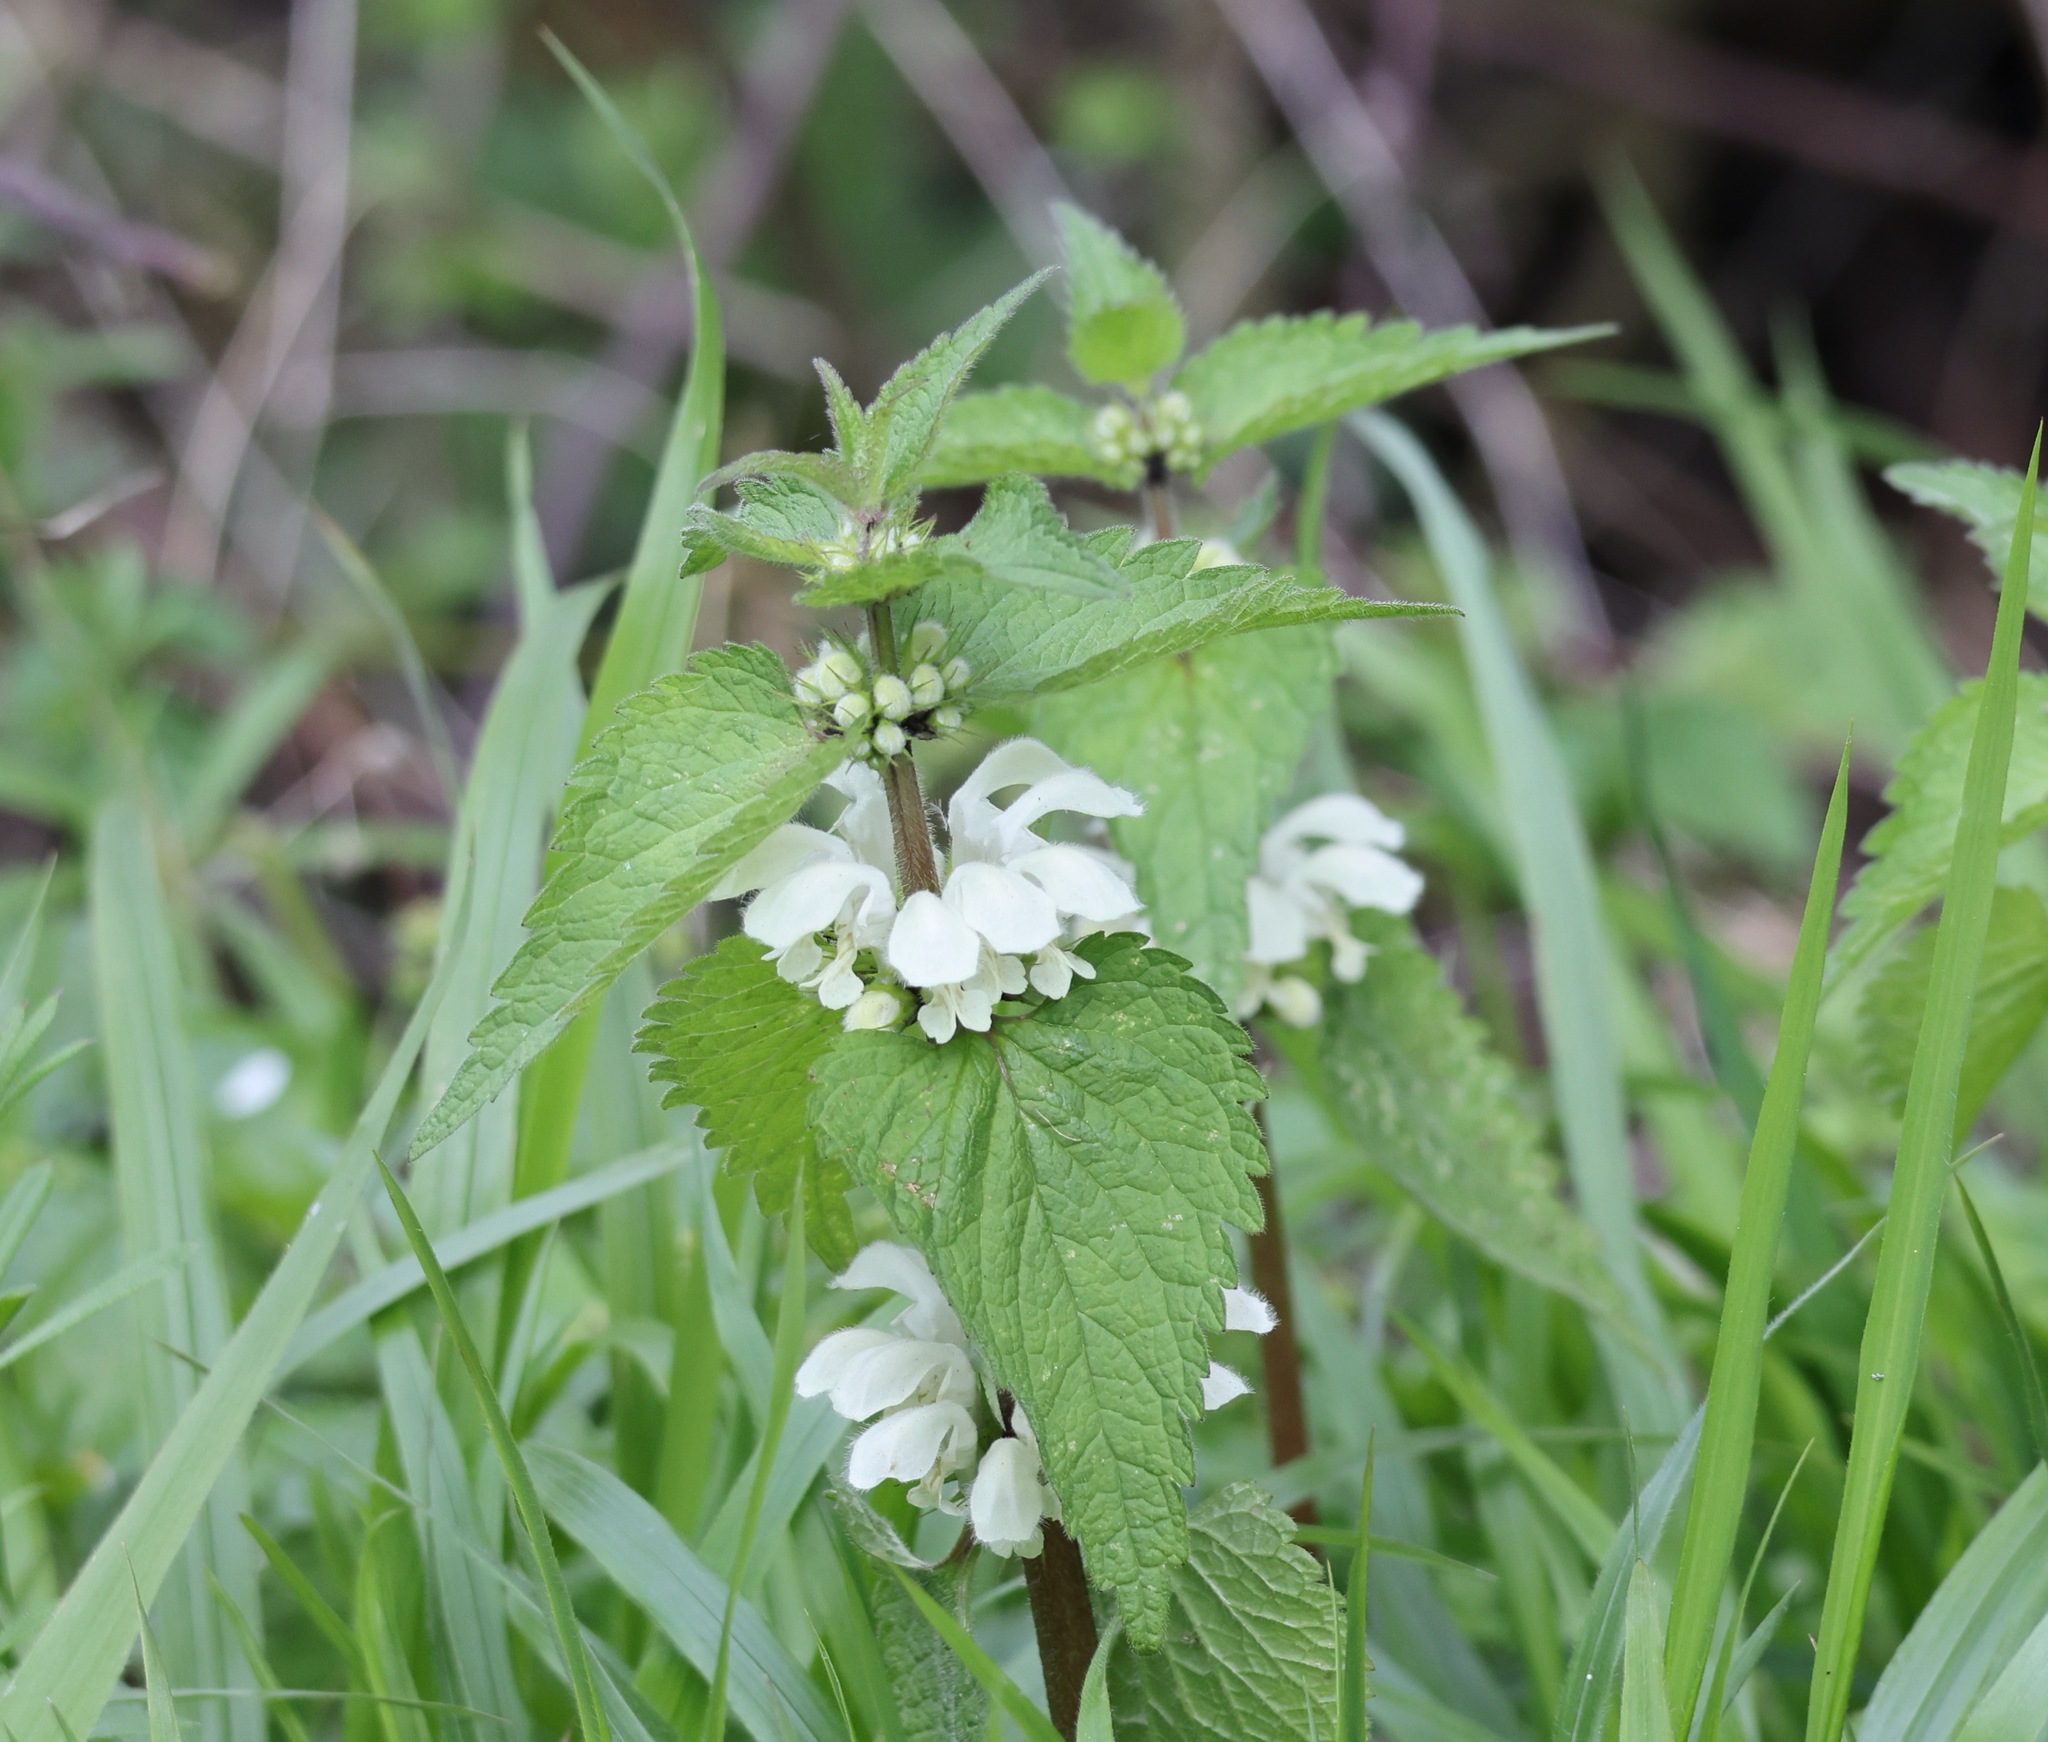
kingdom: Plantae
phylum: Tracheophyta
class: Magnoliopsida
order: Lamiales
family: Lamiaceae
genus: Lamium
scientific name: Lamium album
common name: White dead-nettle
